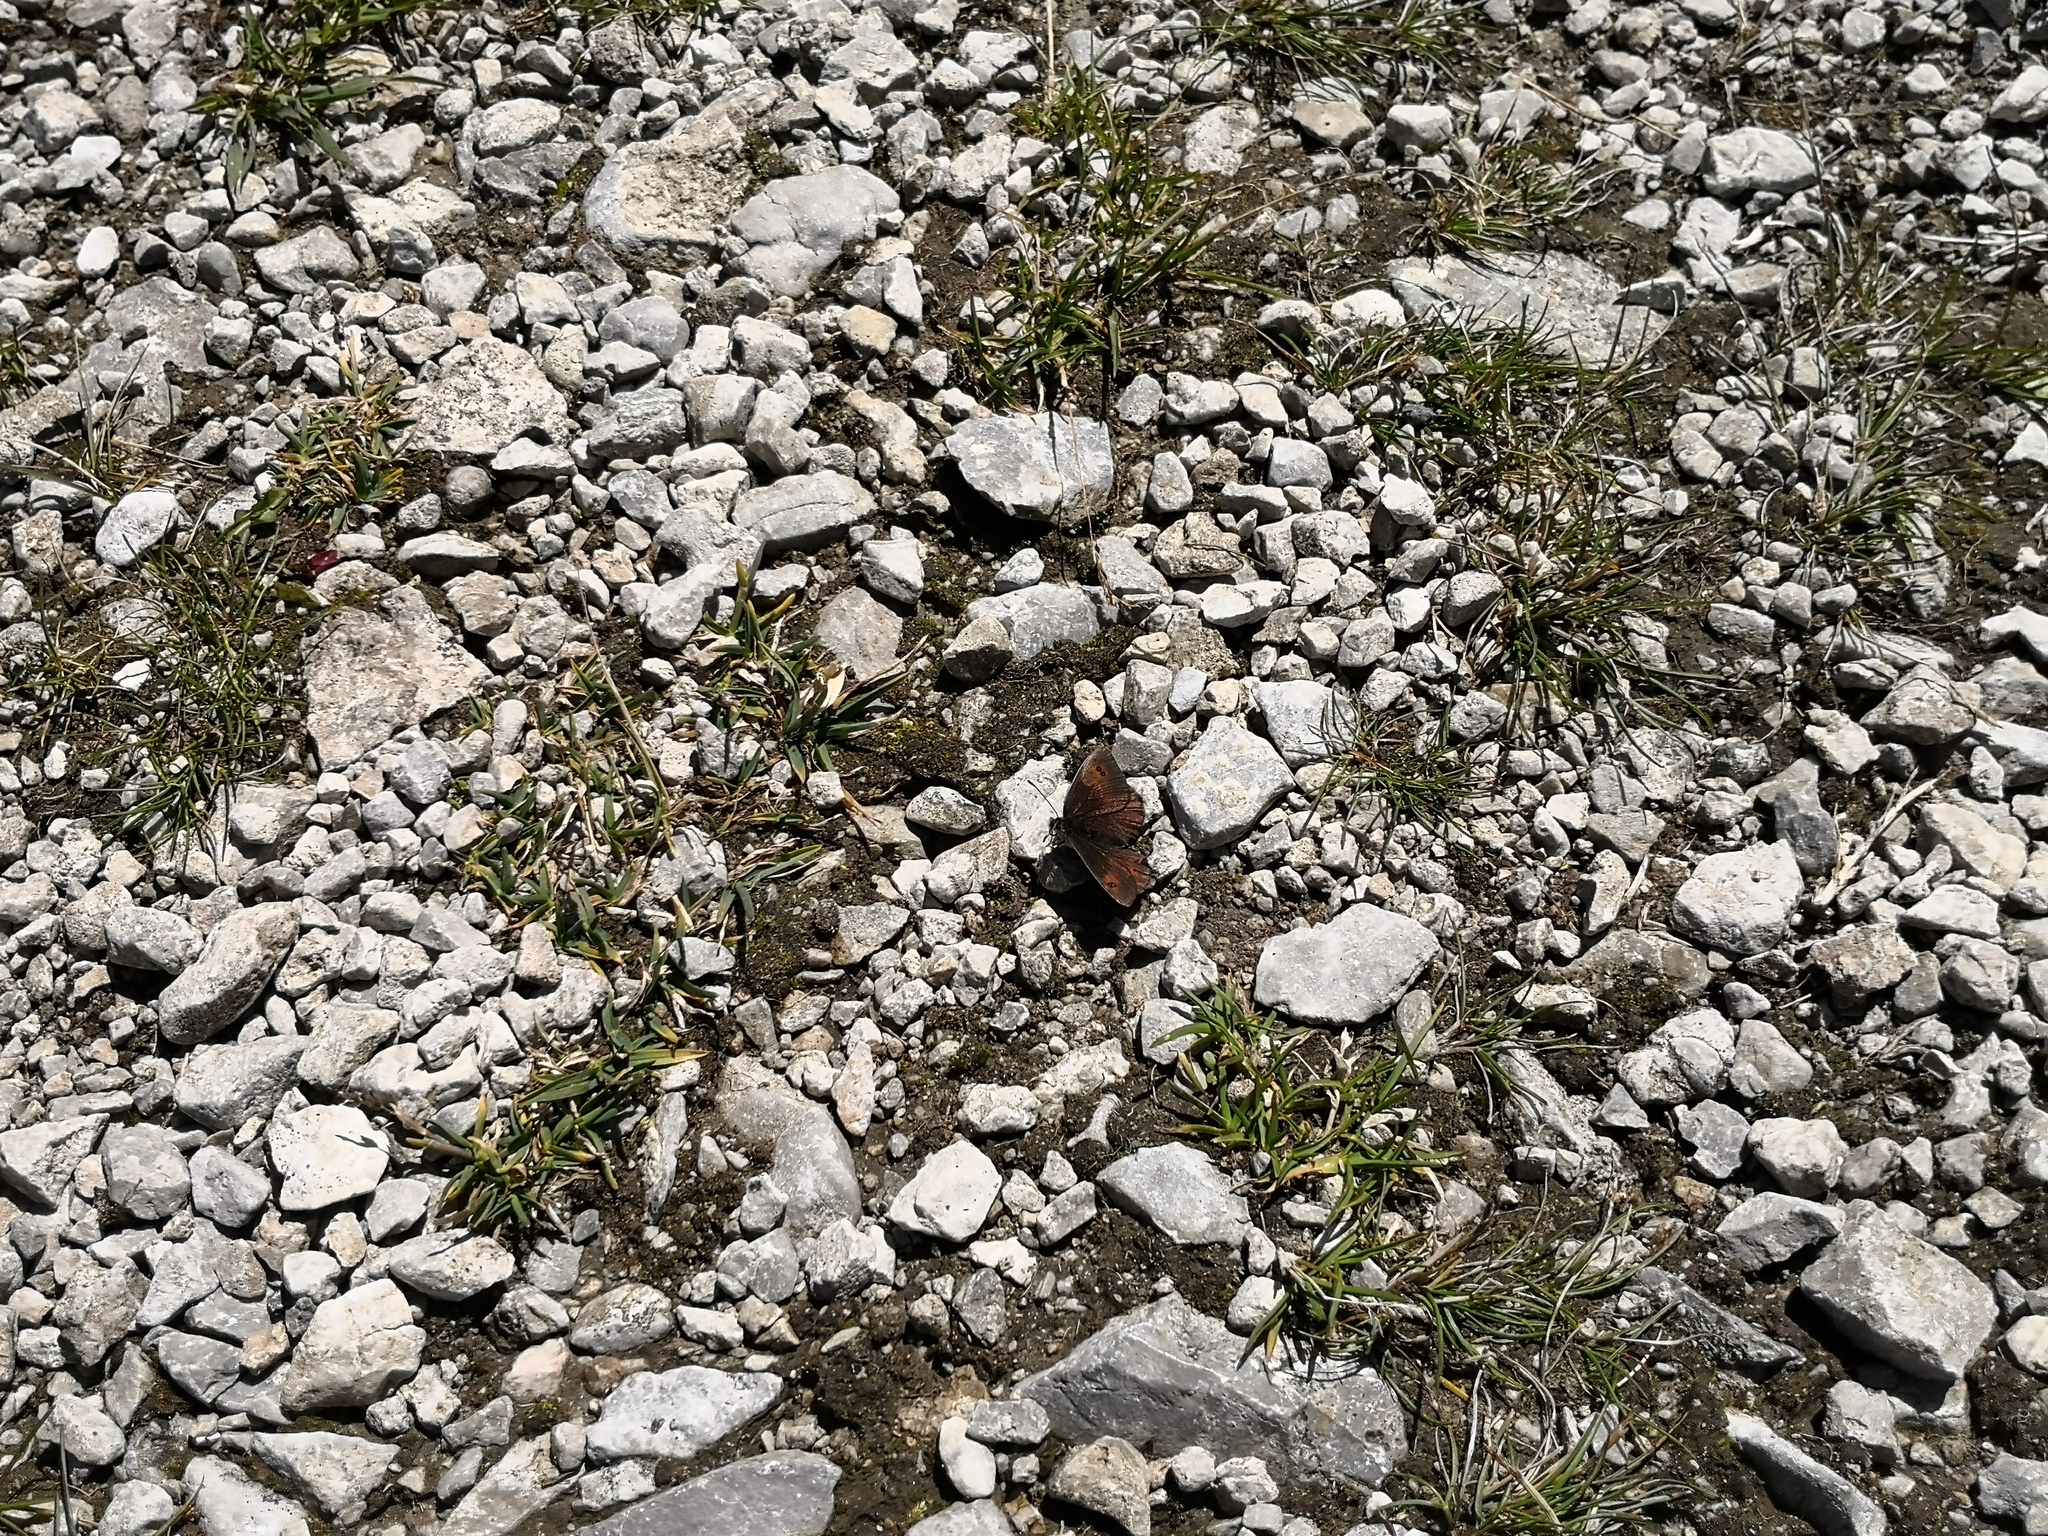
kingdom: Animalia
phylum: Arthropoda
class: Insecta
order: Lepidoptera
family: Nymphalidae
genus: Erebia
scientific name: Erebia cassioides
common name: Common brassy ringlet
